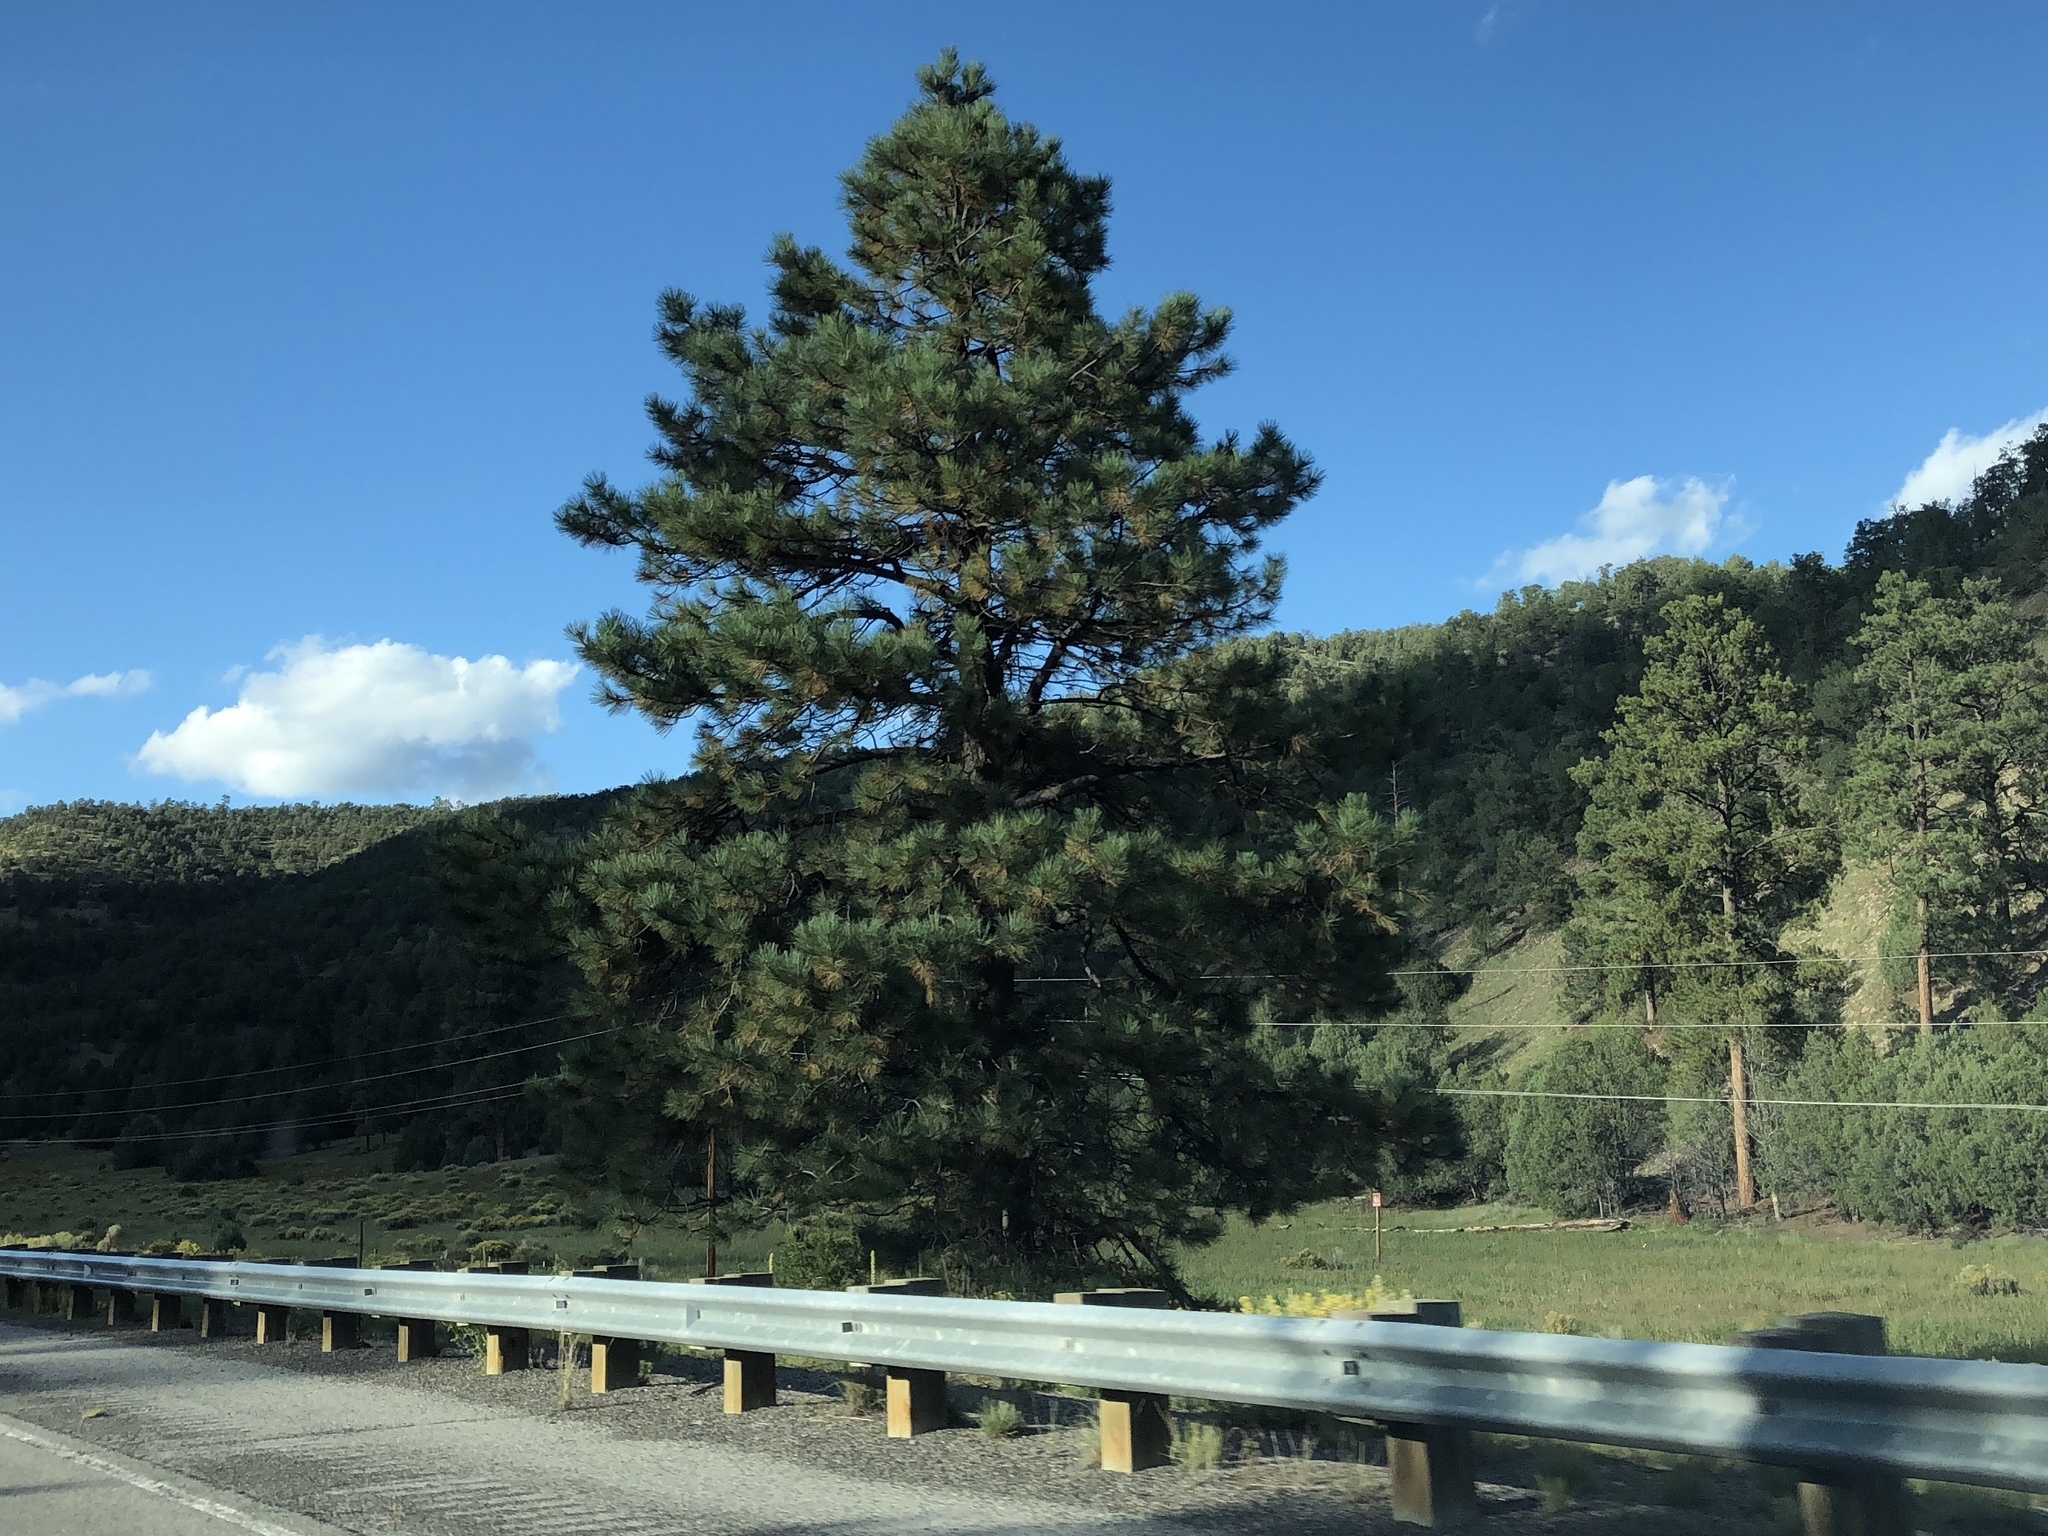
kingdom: Plantae
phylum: Tracheophyta
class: Pinopsida
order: Pinales
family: Pinaceae
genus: Pinus
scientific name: Pinus ponderosa
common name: Western yellow-pine
